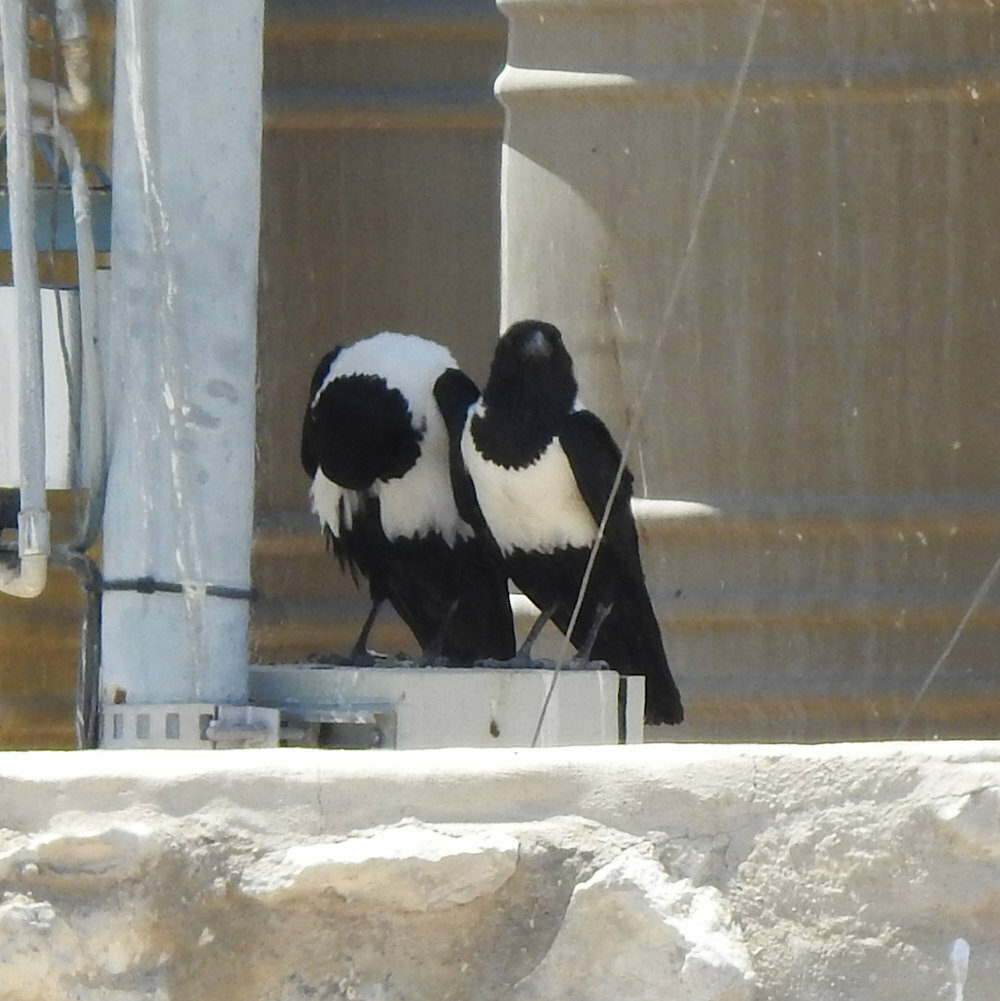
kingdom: Animalia
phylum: Chordata
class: Aves
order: Passeriformes
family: Corvidae
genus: Corvus
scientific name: Corvus albus
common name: Pied crow
